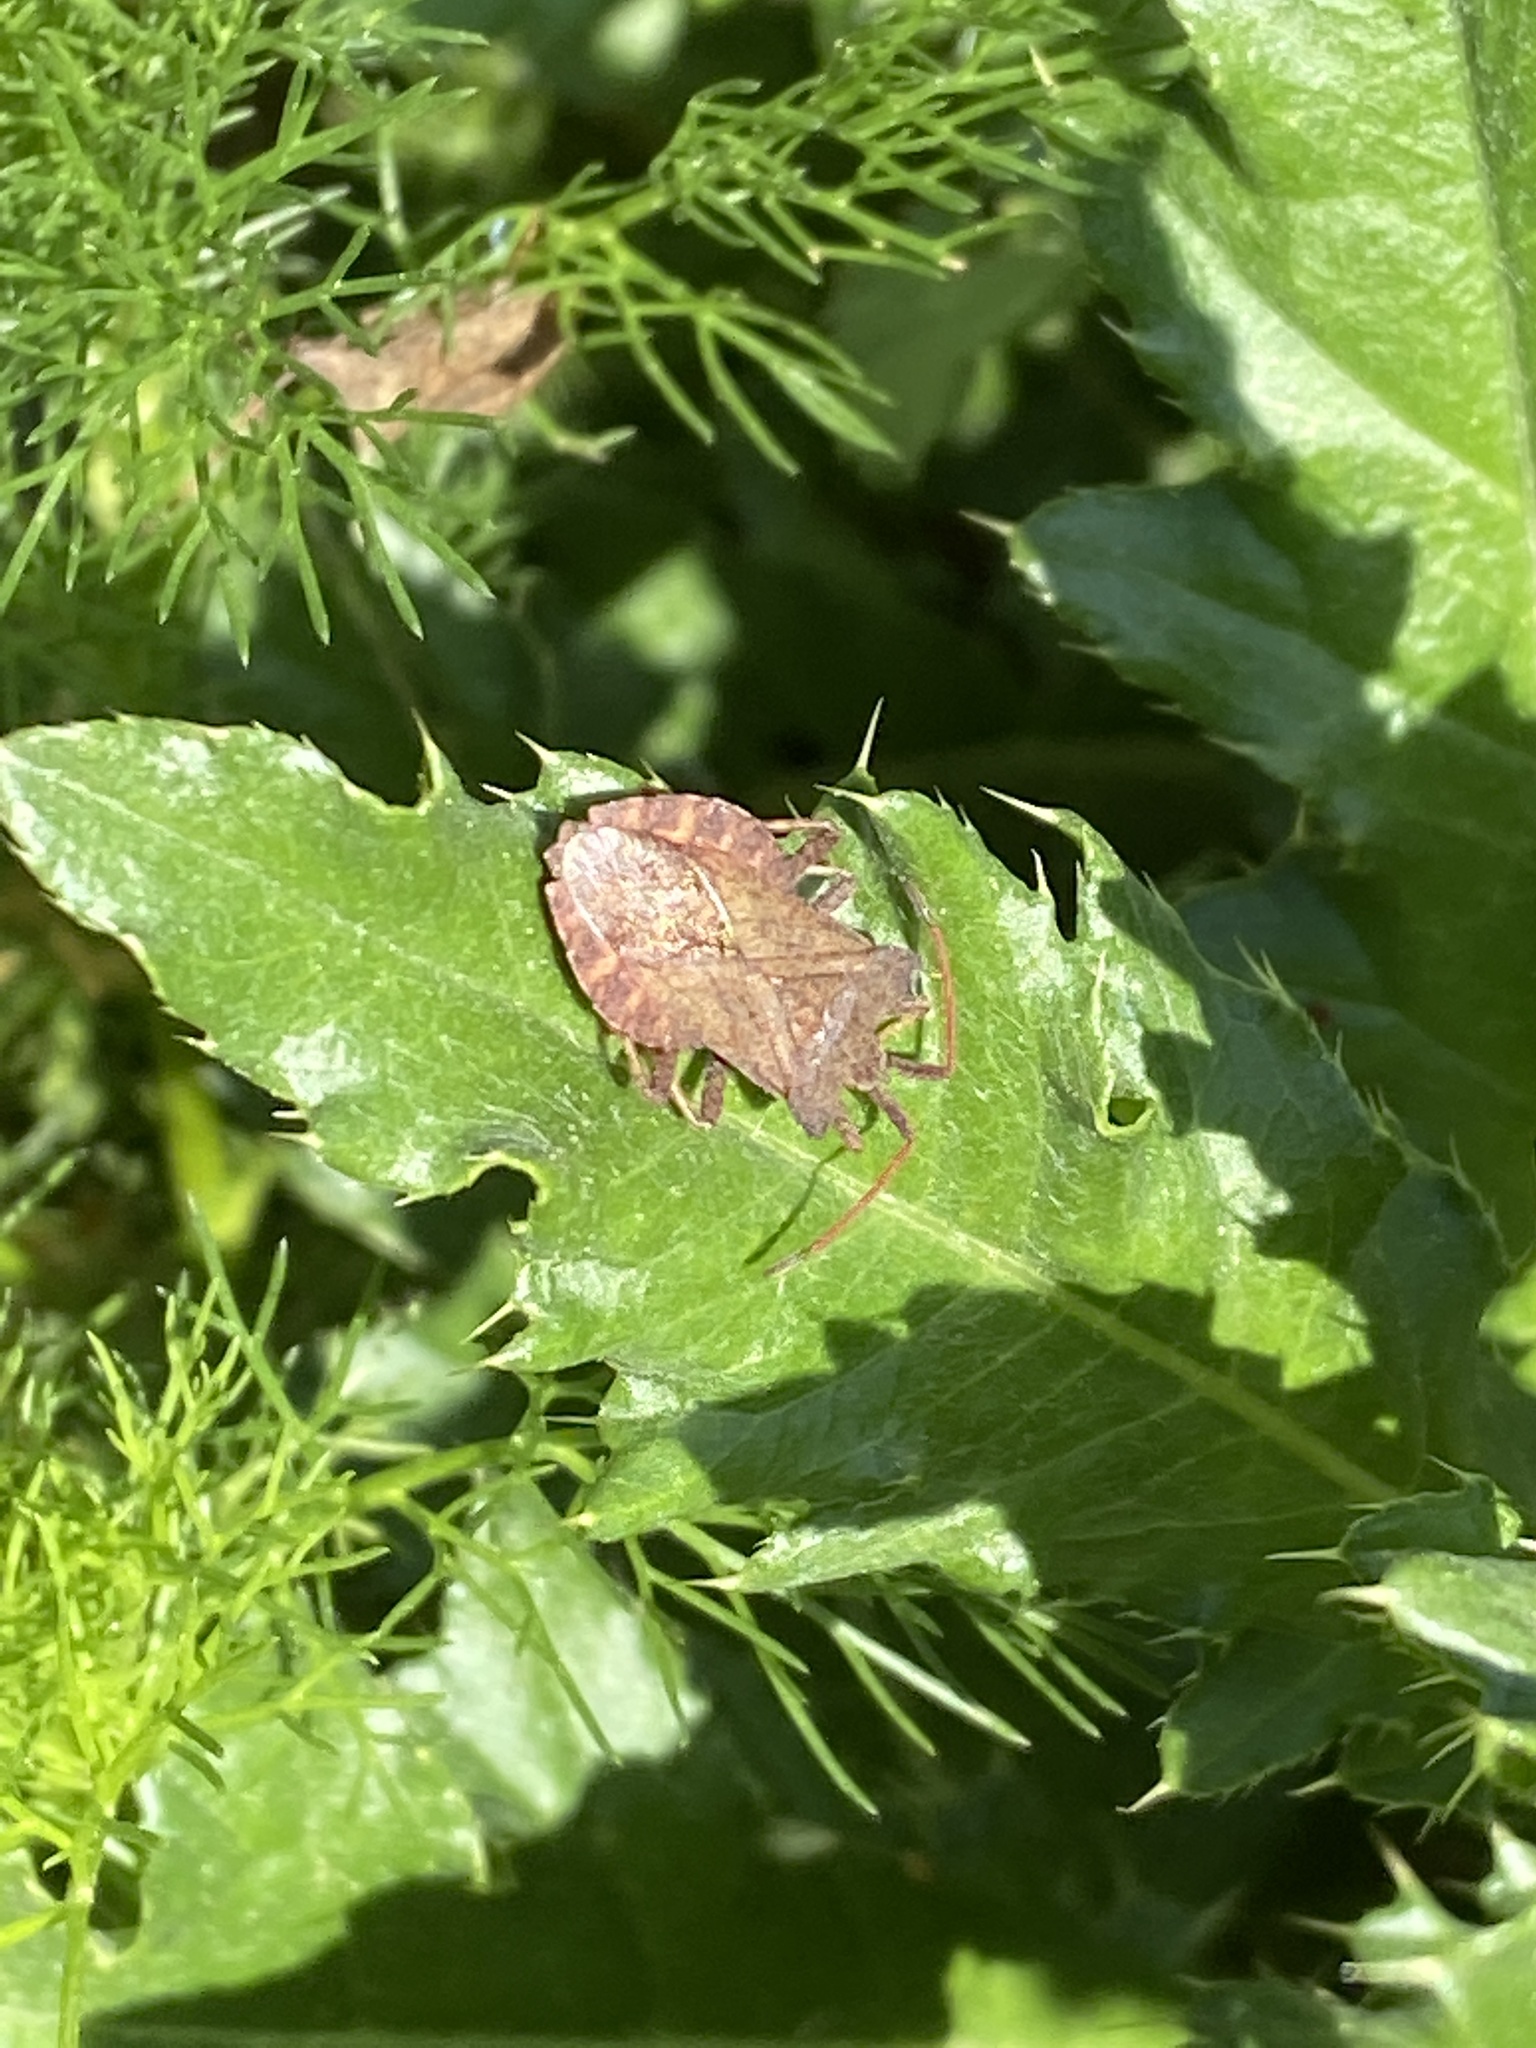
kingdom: Animalia
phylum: Arthropoda
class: Insecta
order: Hemiptera
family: Coreidae
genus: Coreus
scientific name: Coreus marginatus
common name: Dock bug
